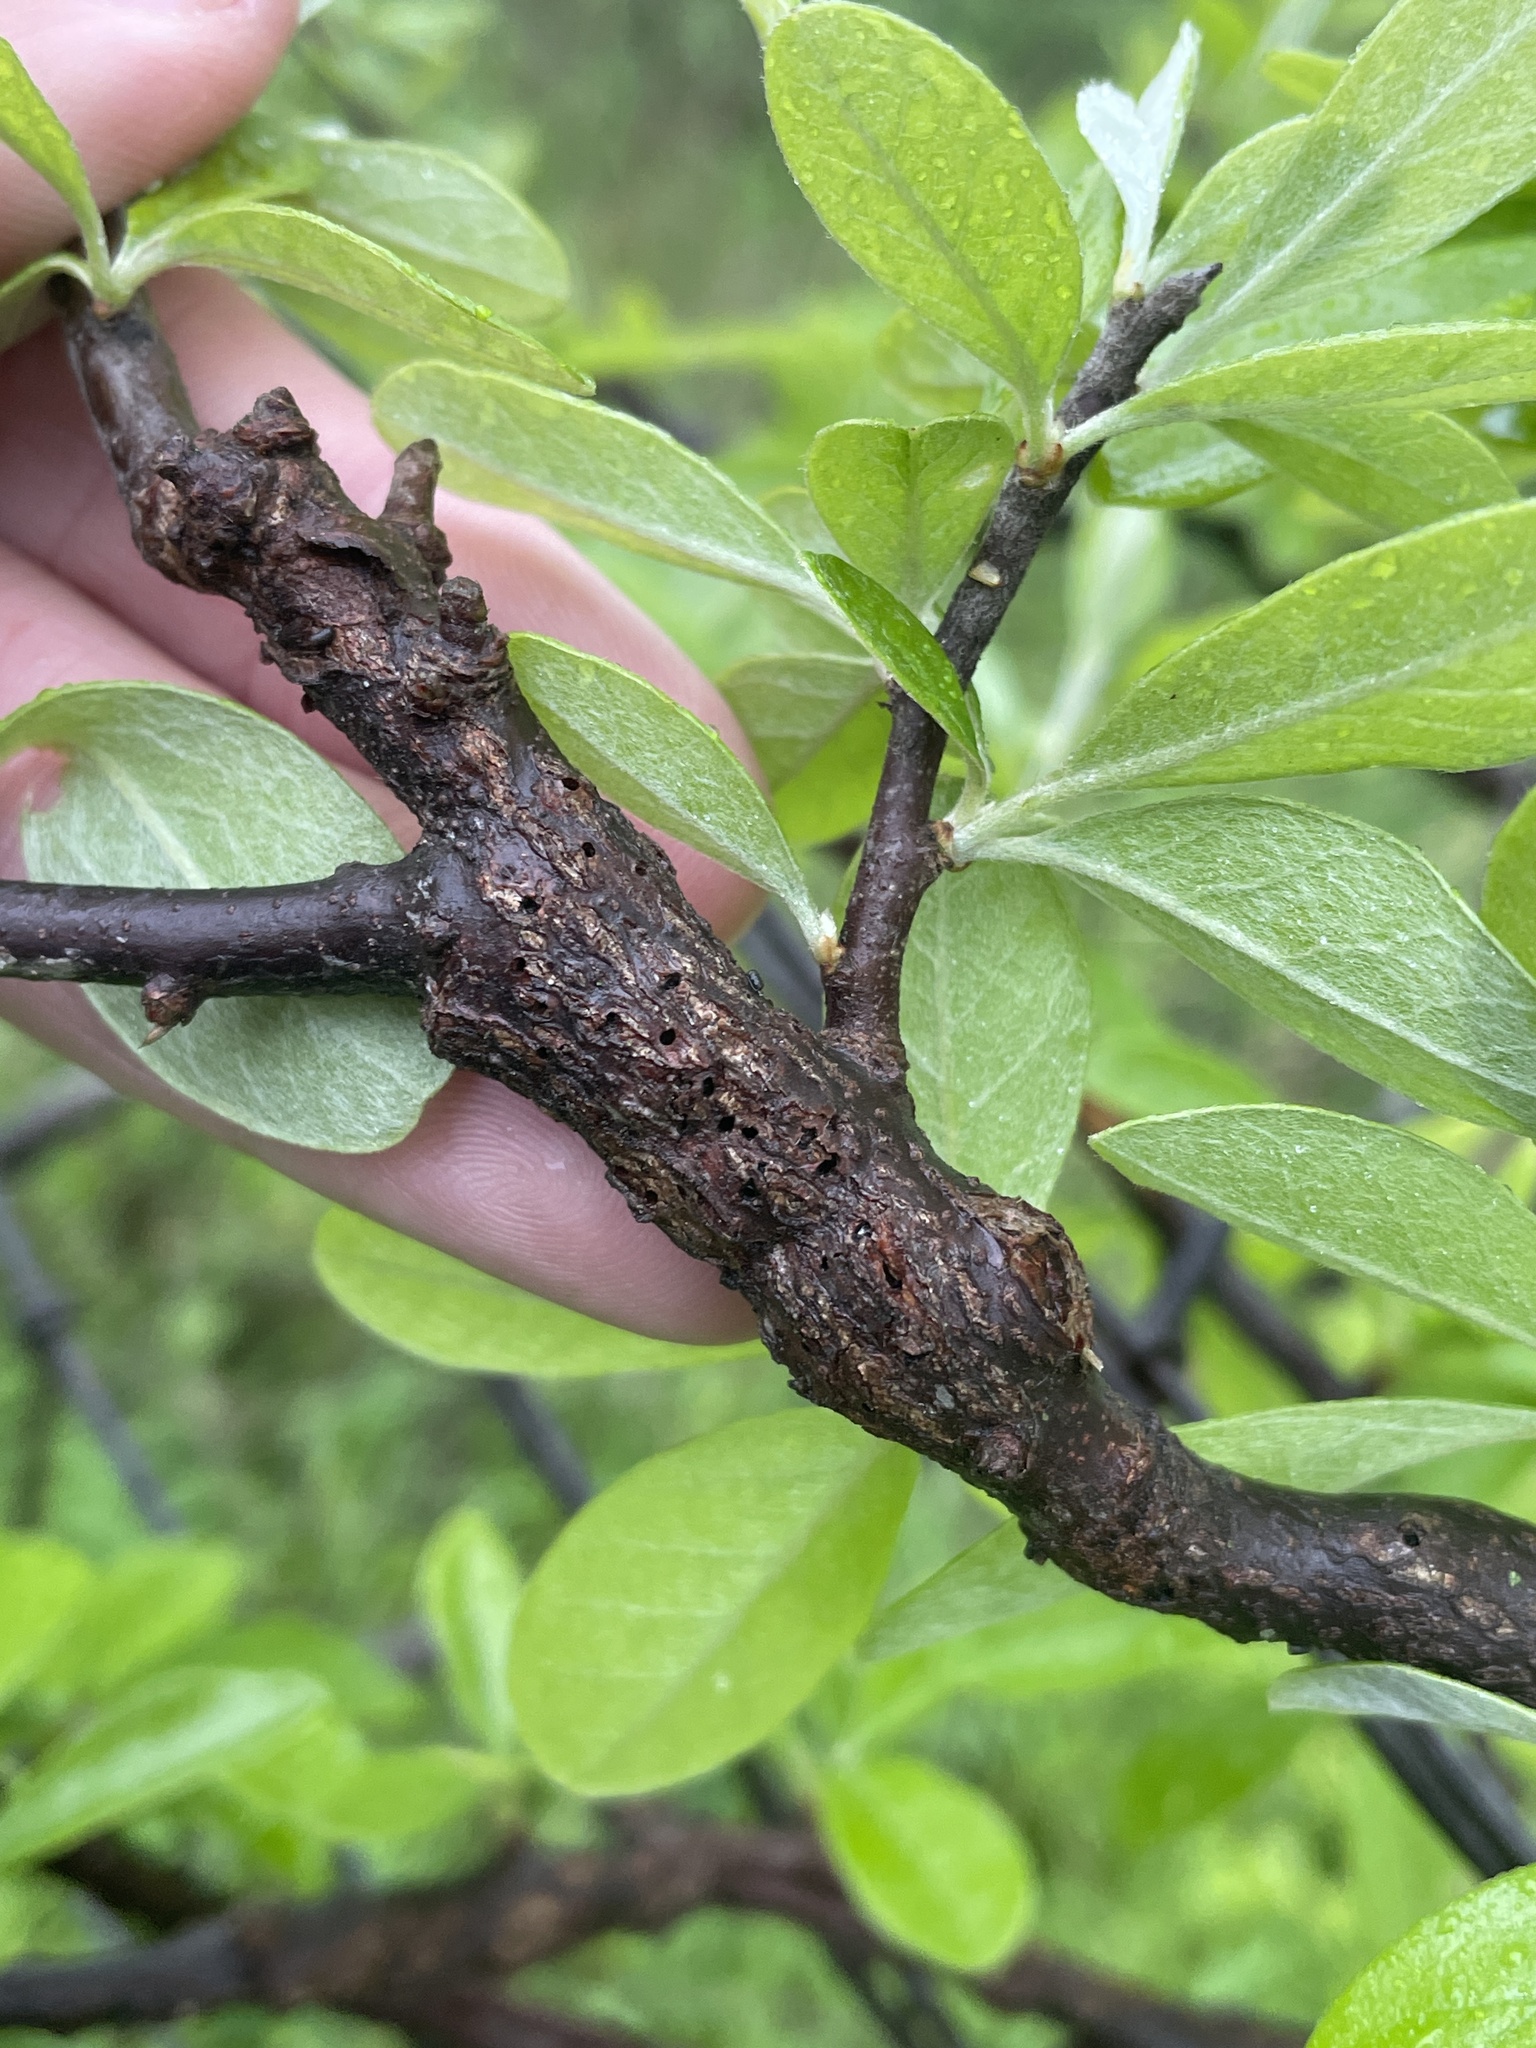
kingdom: Animalia
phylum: Arthropoda
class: Insecta
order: Diptera
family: Cecidomyiidae
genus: Bruggmanniella
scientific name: Bruggmanniella bumeliae
